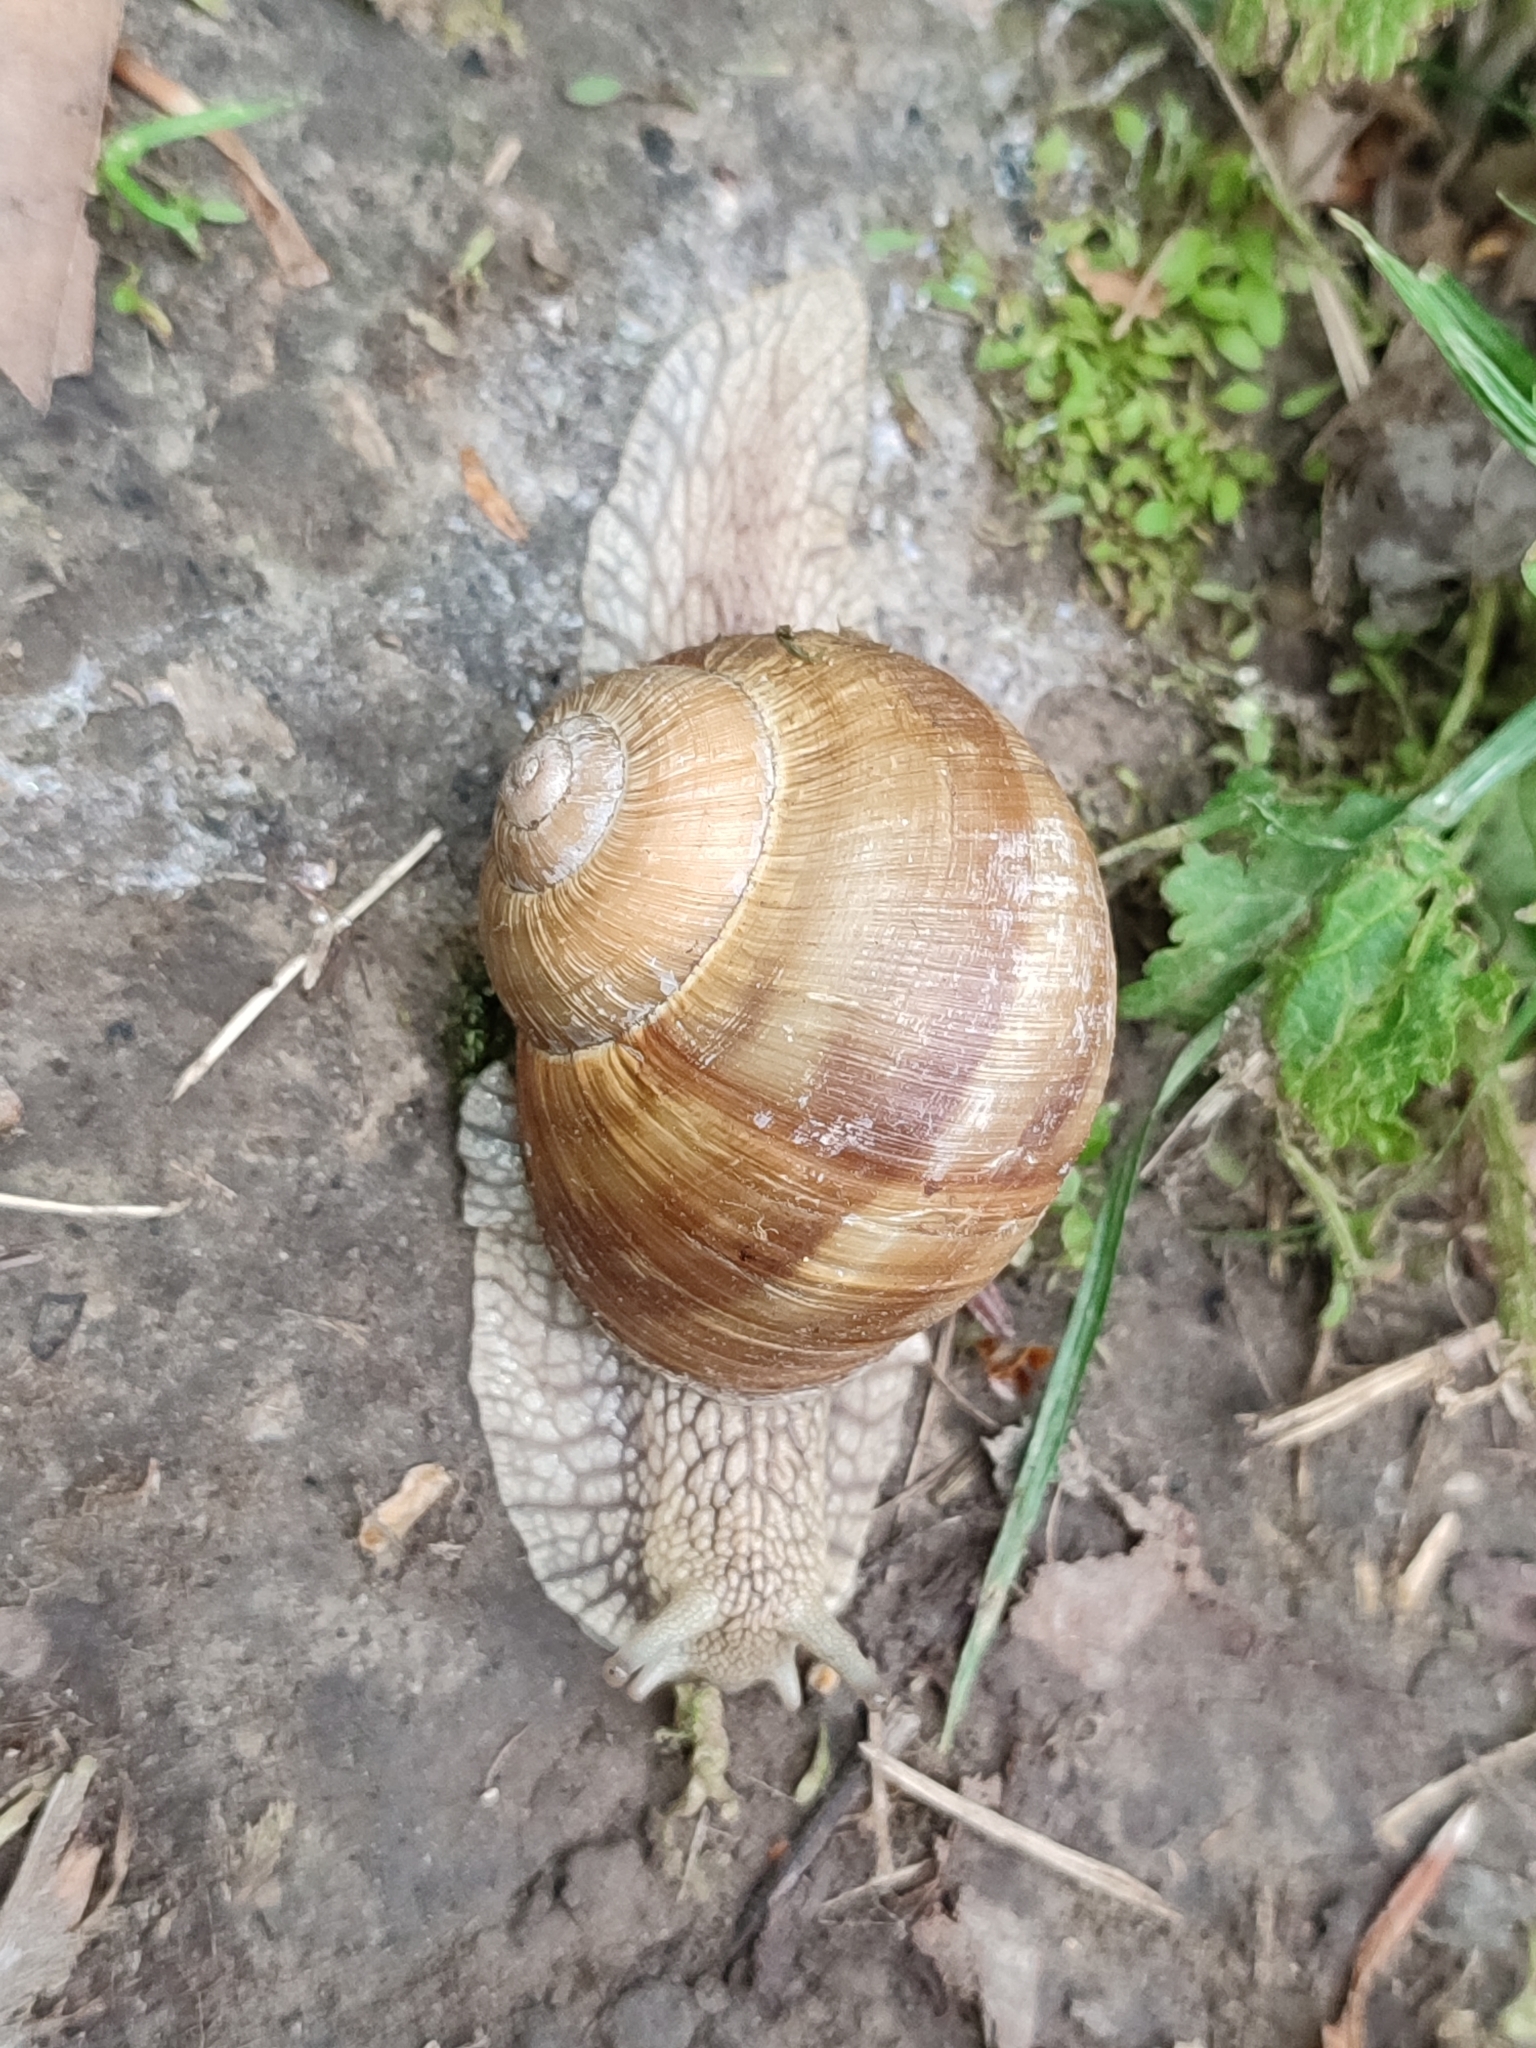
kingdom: Animalia
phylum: Mollusca
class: Gastropoda
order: Stylommatophora
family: Helicidae
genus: Helix
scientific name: Helix pomatia
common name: Roman snail
